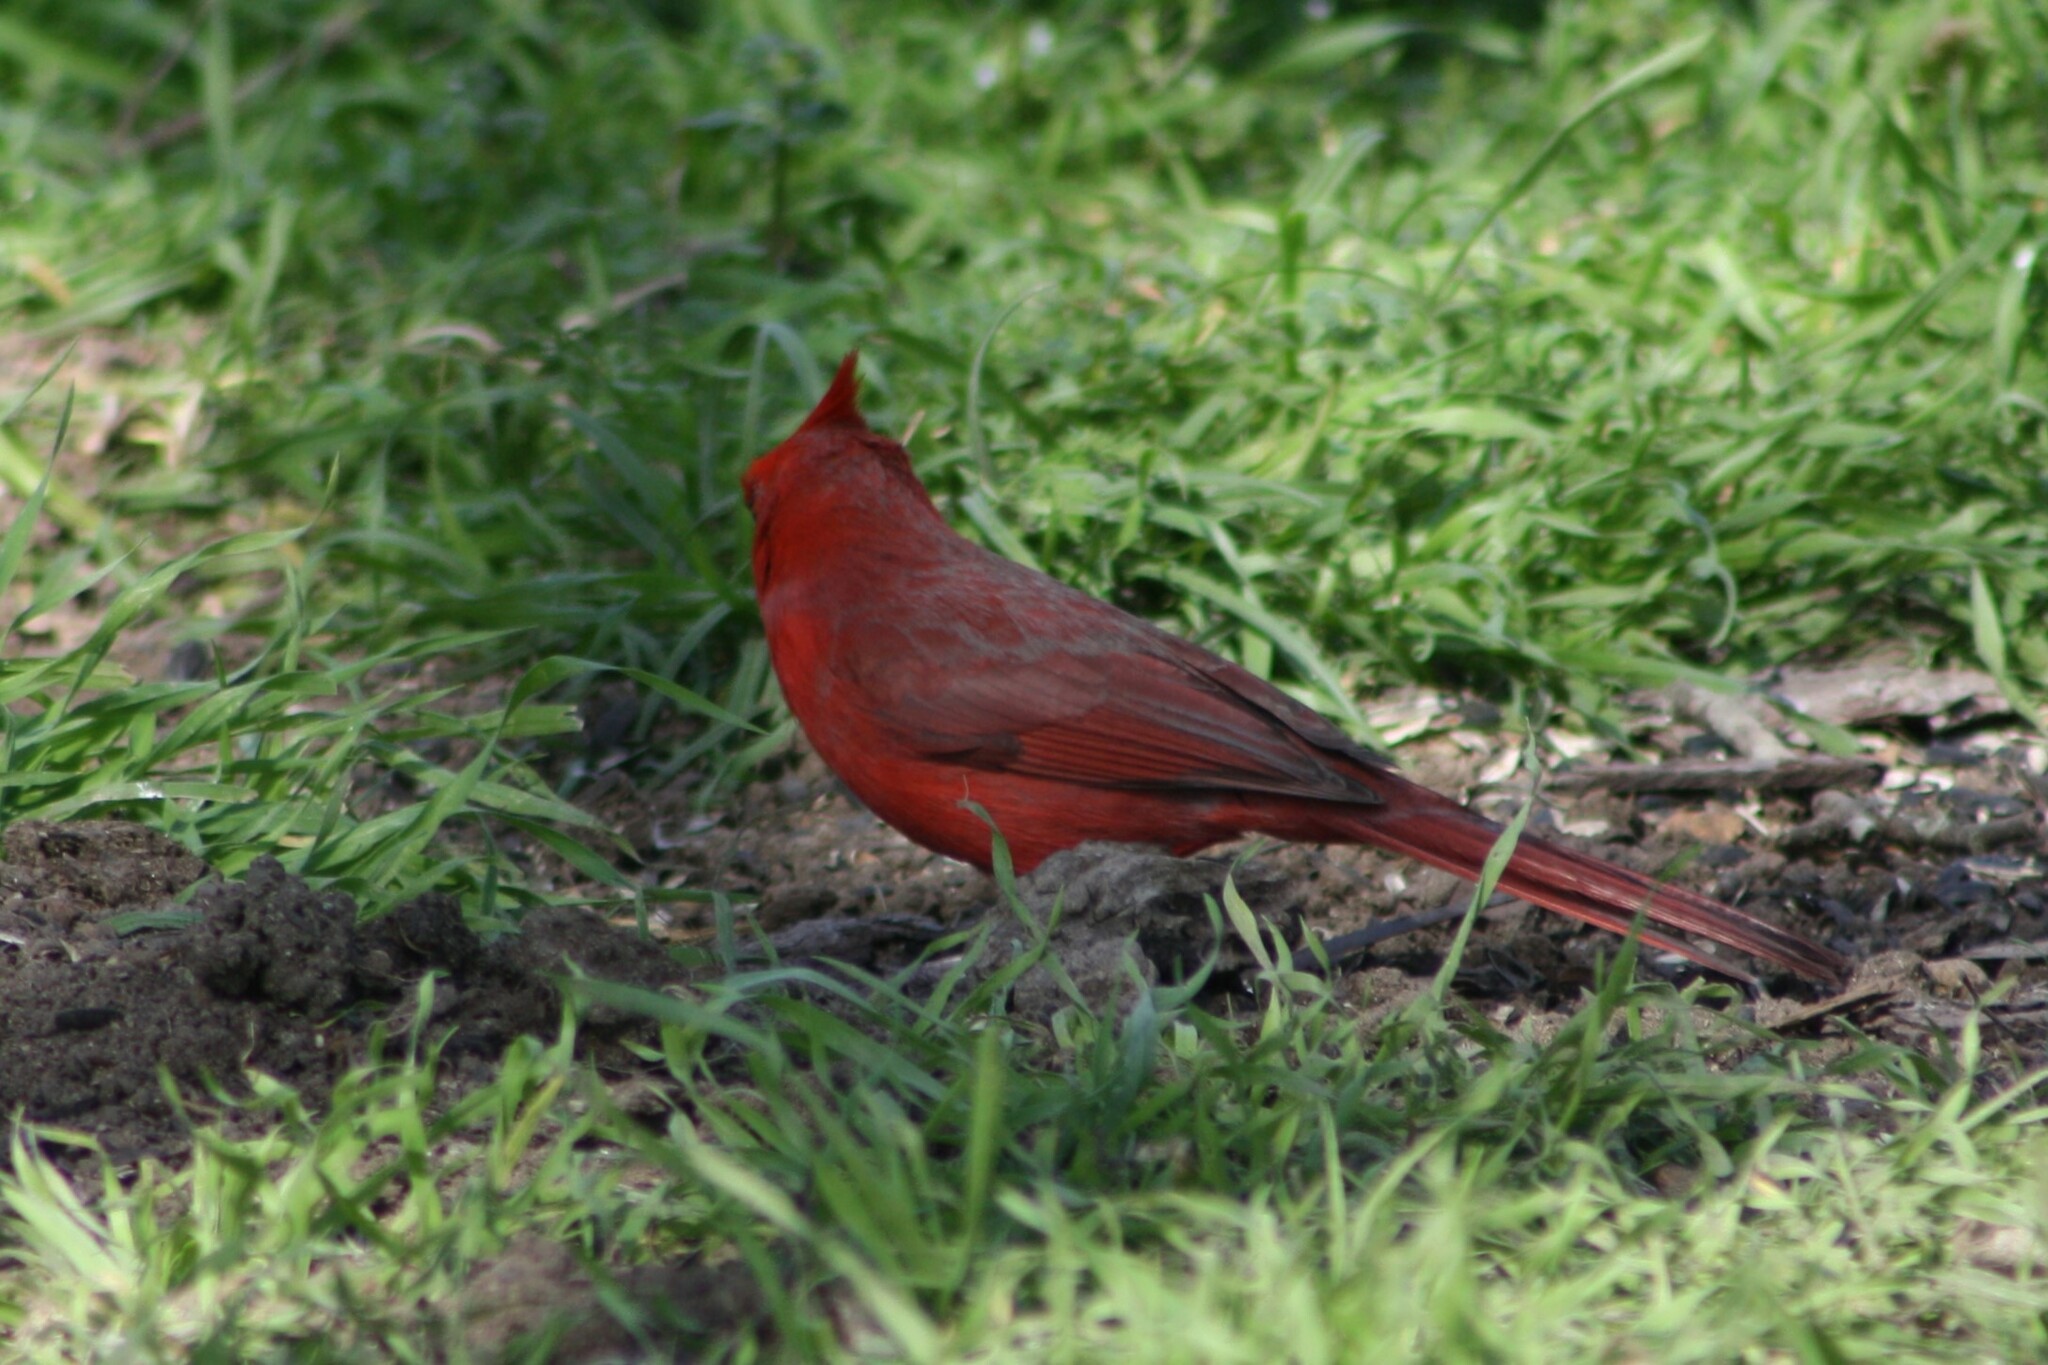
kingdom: Animalia
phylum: Chordata
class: Aves
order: Passeriformes
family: Cardinalidae
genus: Cardinalis
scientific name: Cardinalis cardinalis
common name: Northern cardinal
